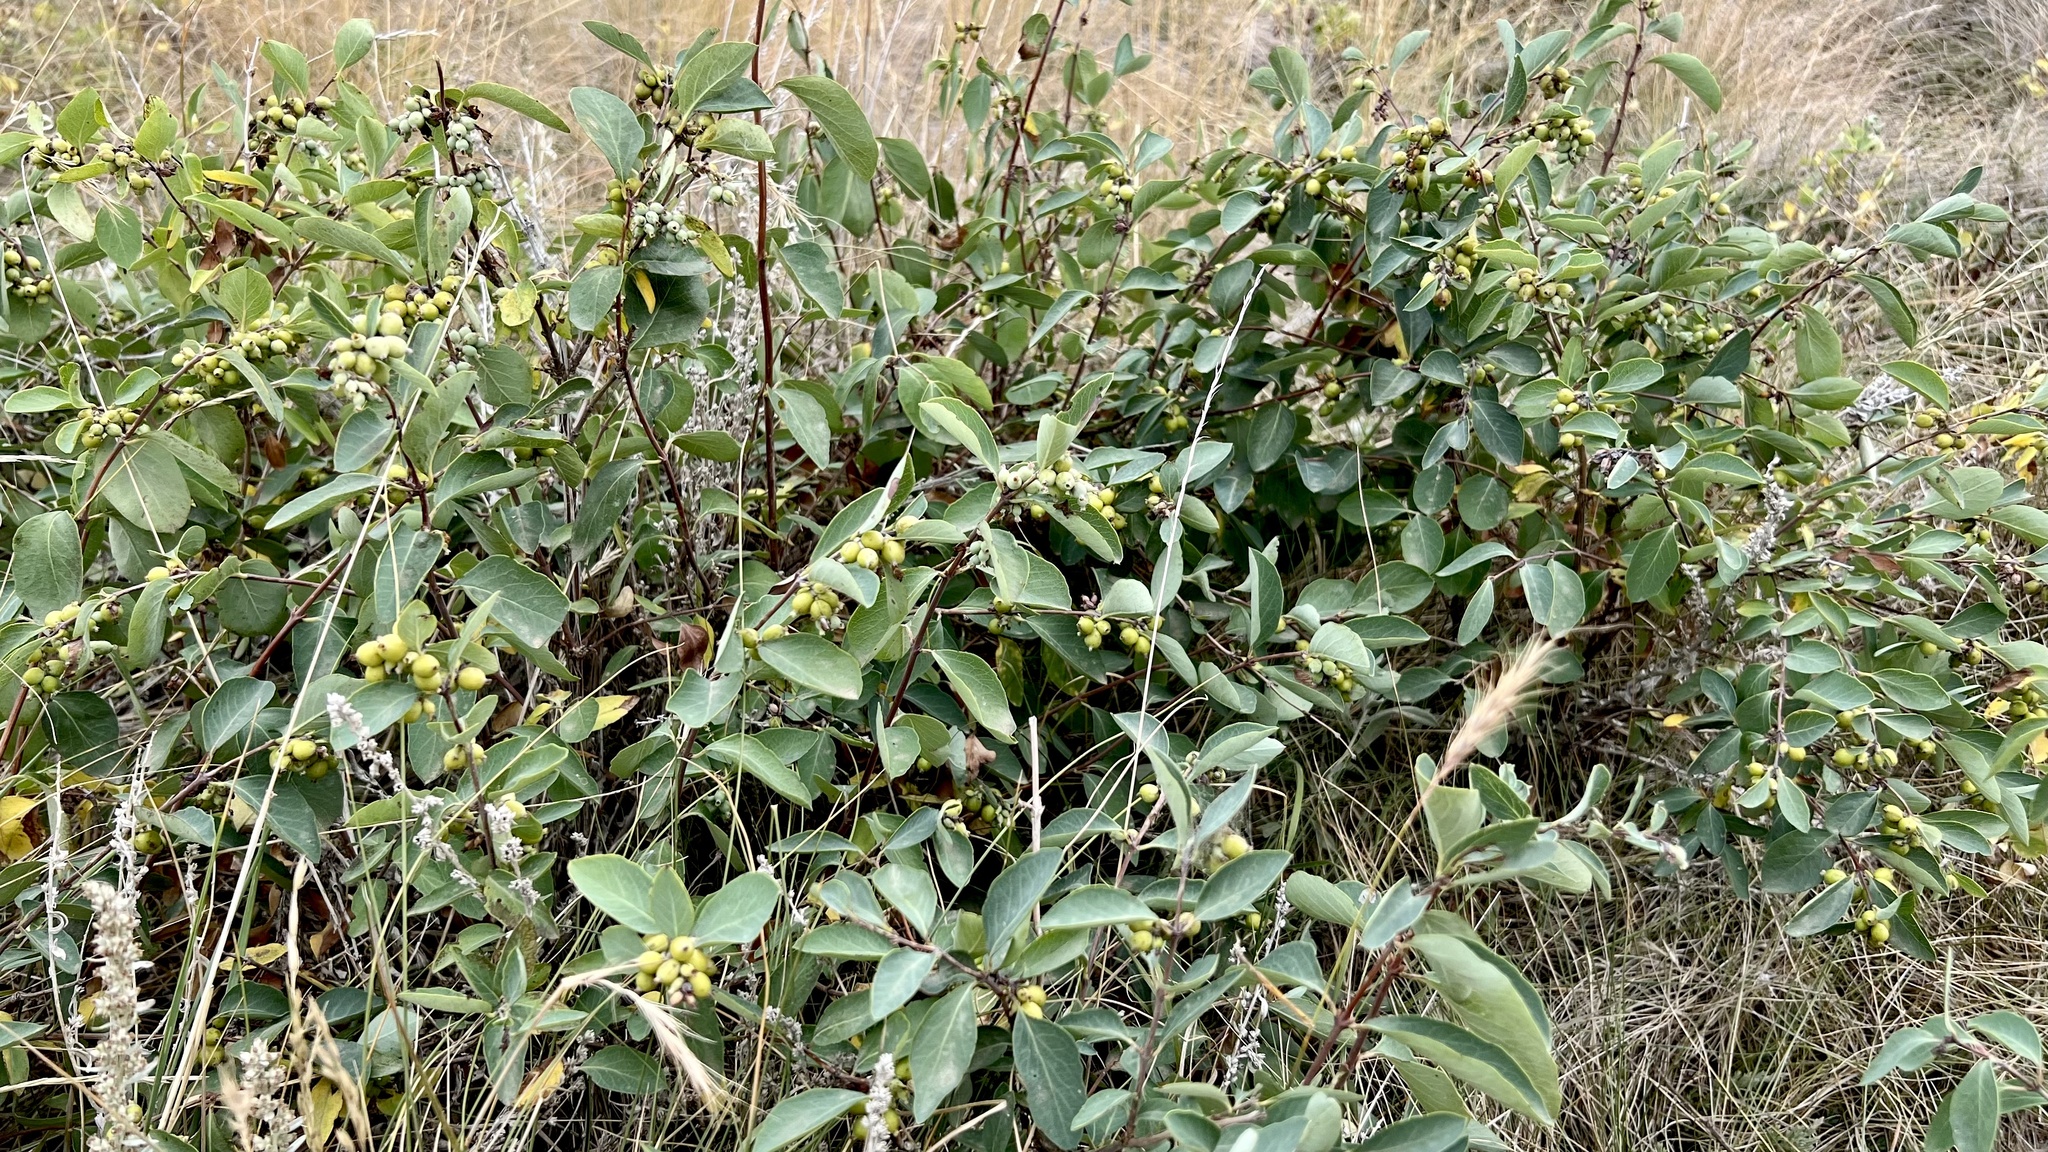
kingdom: Plantae
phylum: Tracheophyta
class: Magnoliopsida
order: Dipsacales
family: Caprifoliaceae
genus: Symphoricarpos
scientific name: Symphoricarpos occidentalis
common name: Wolfberry
